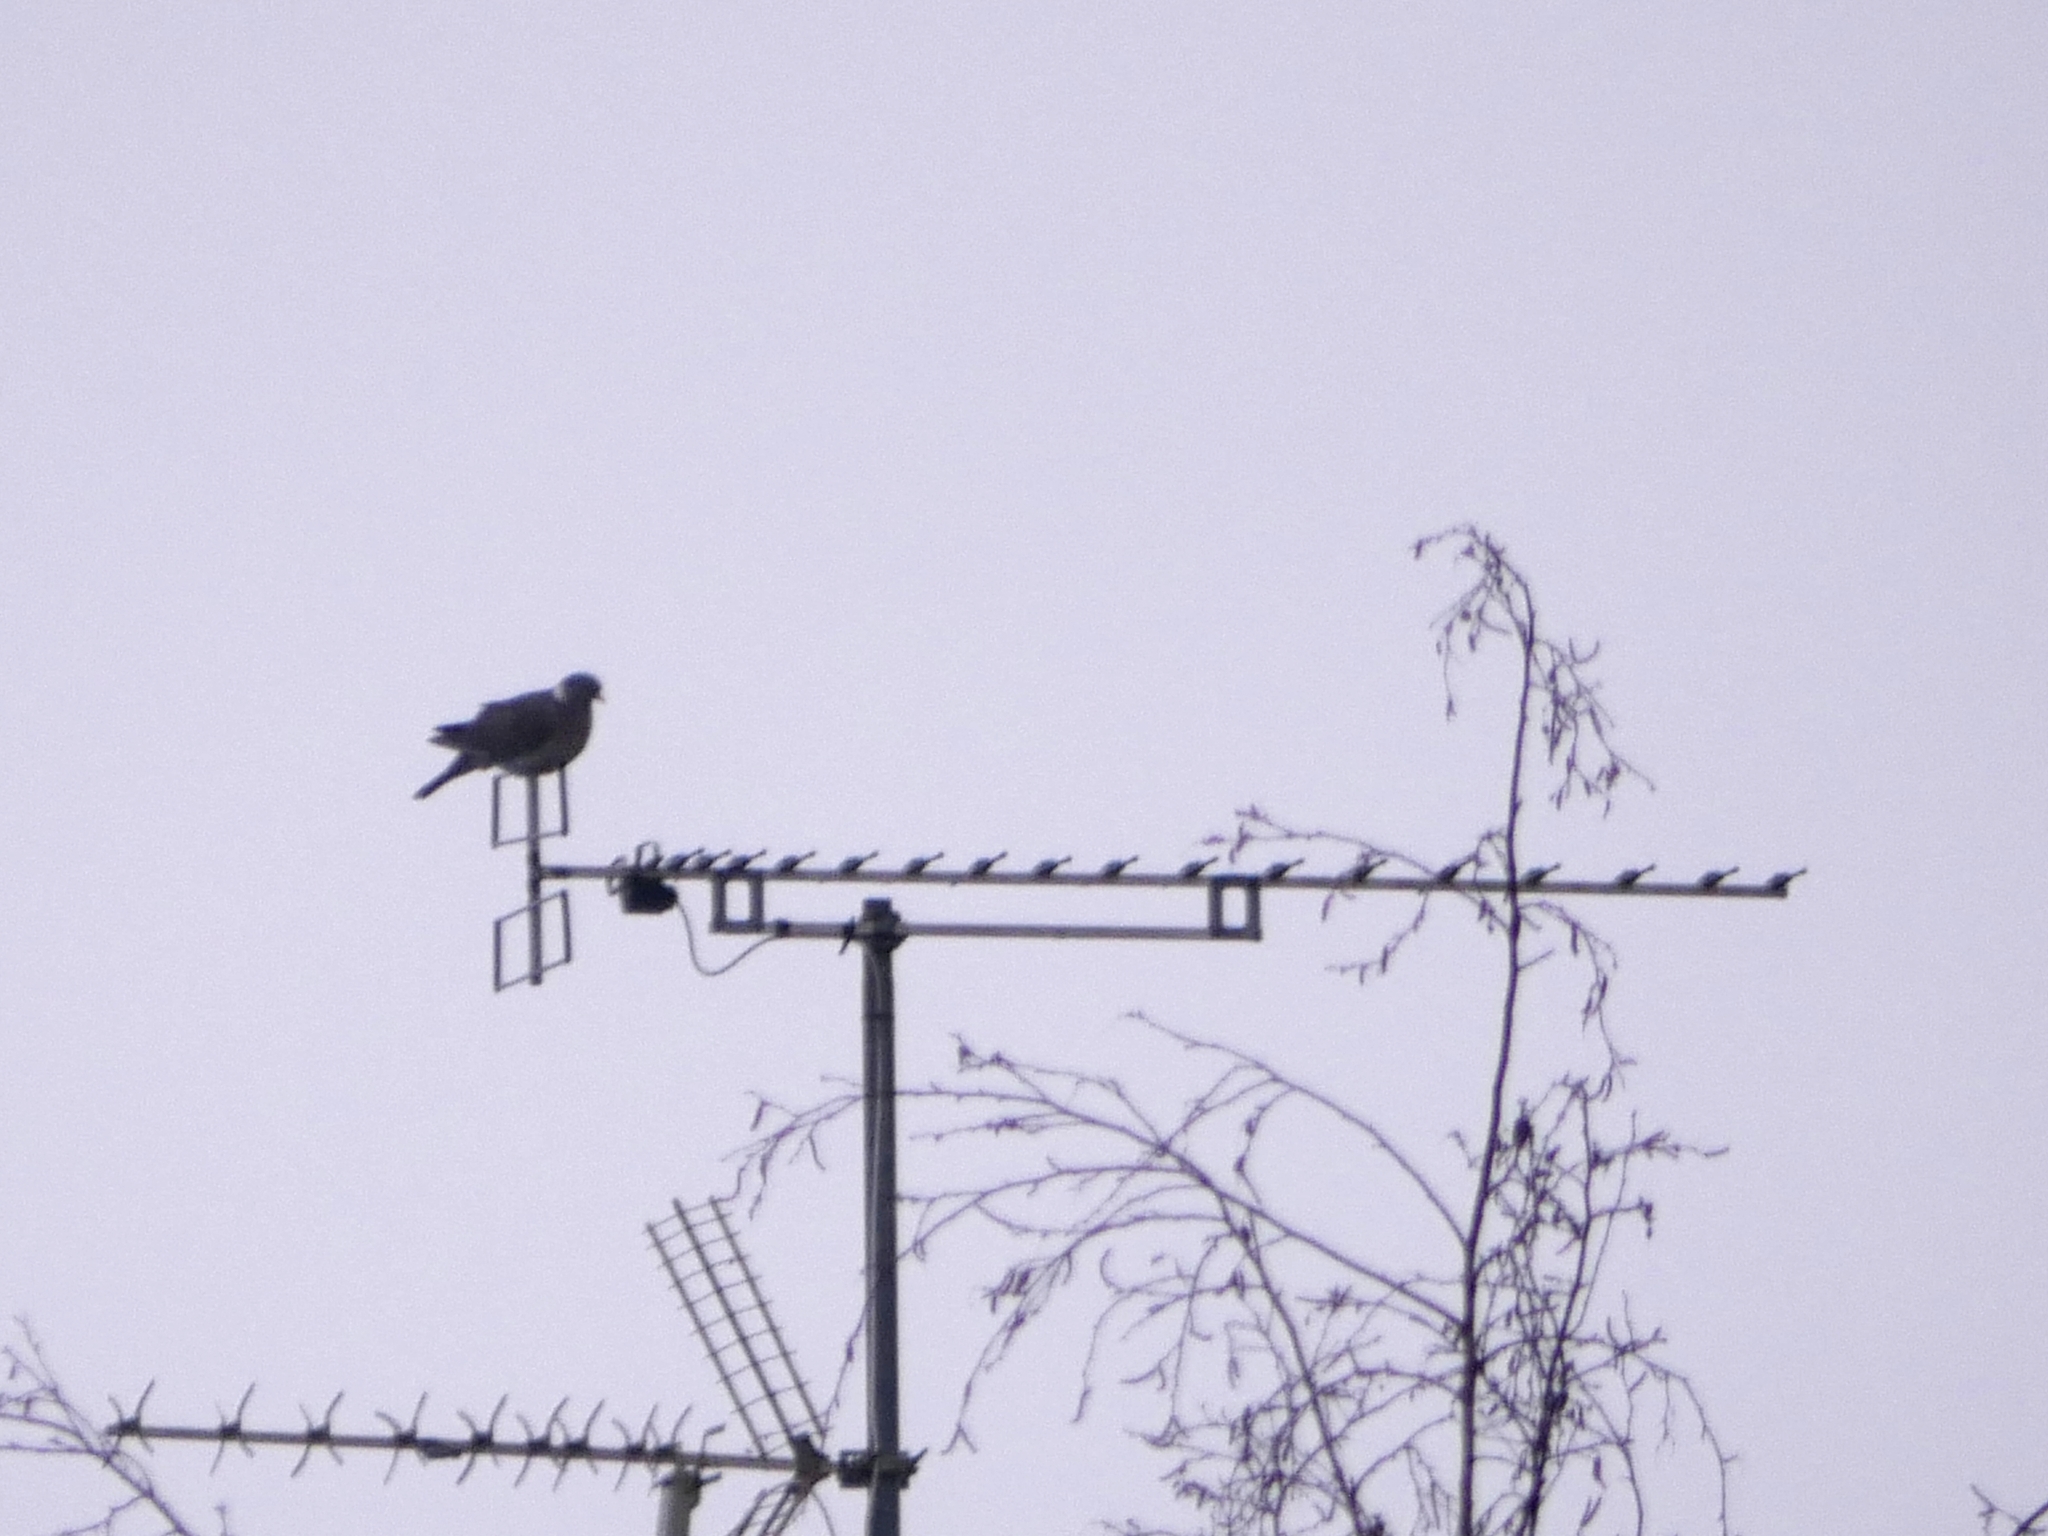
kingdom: Animalia
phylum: Chordata
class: Aves
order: Columbiformes
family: Columbidae
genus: Columba
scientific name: Columba palumbus
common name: Common wood pigeon
